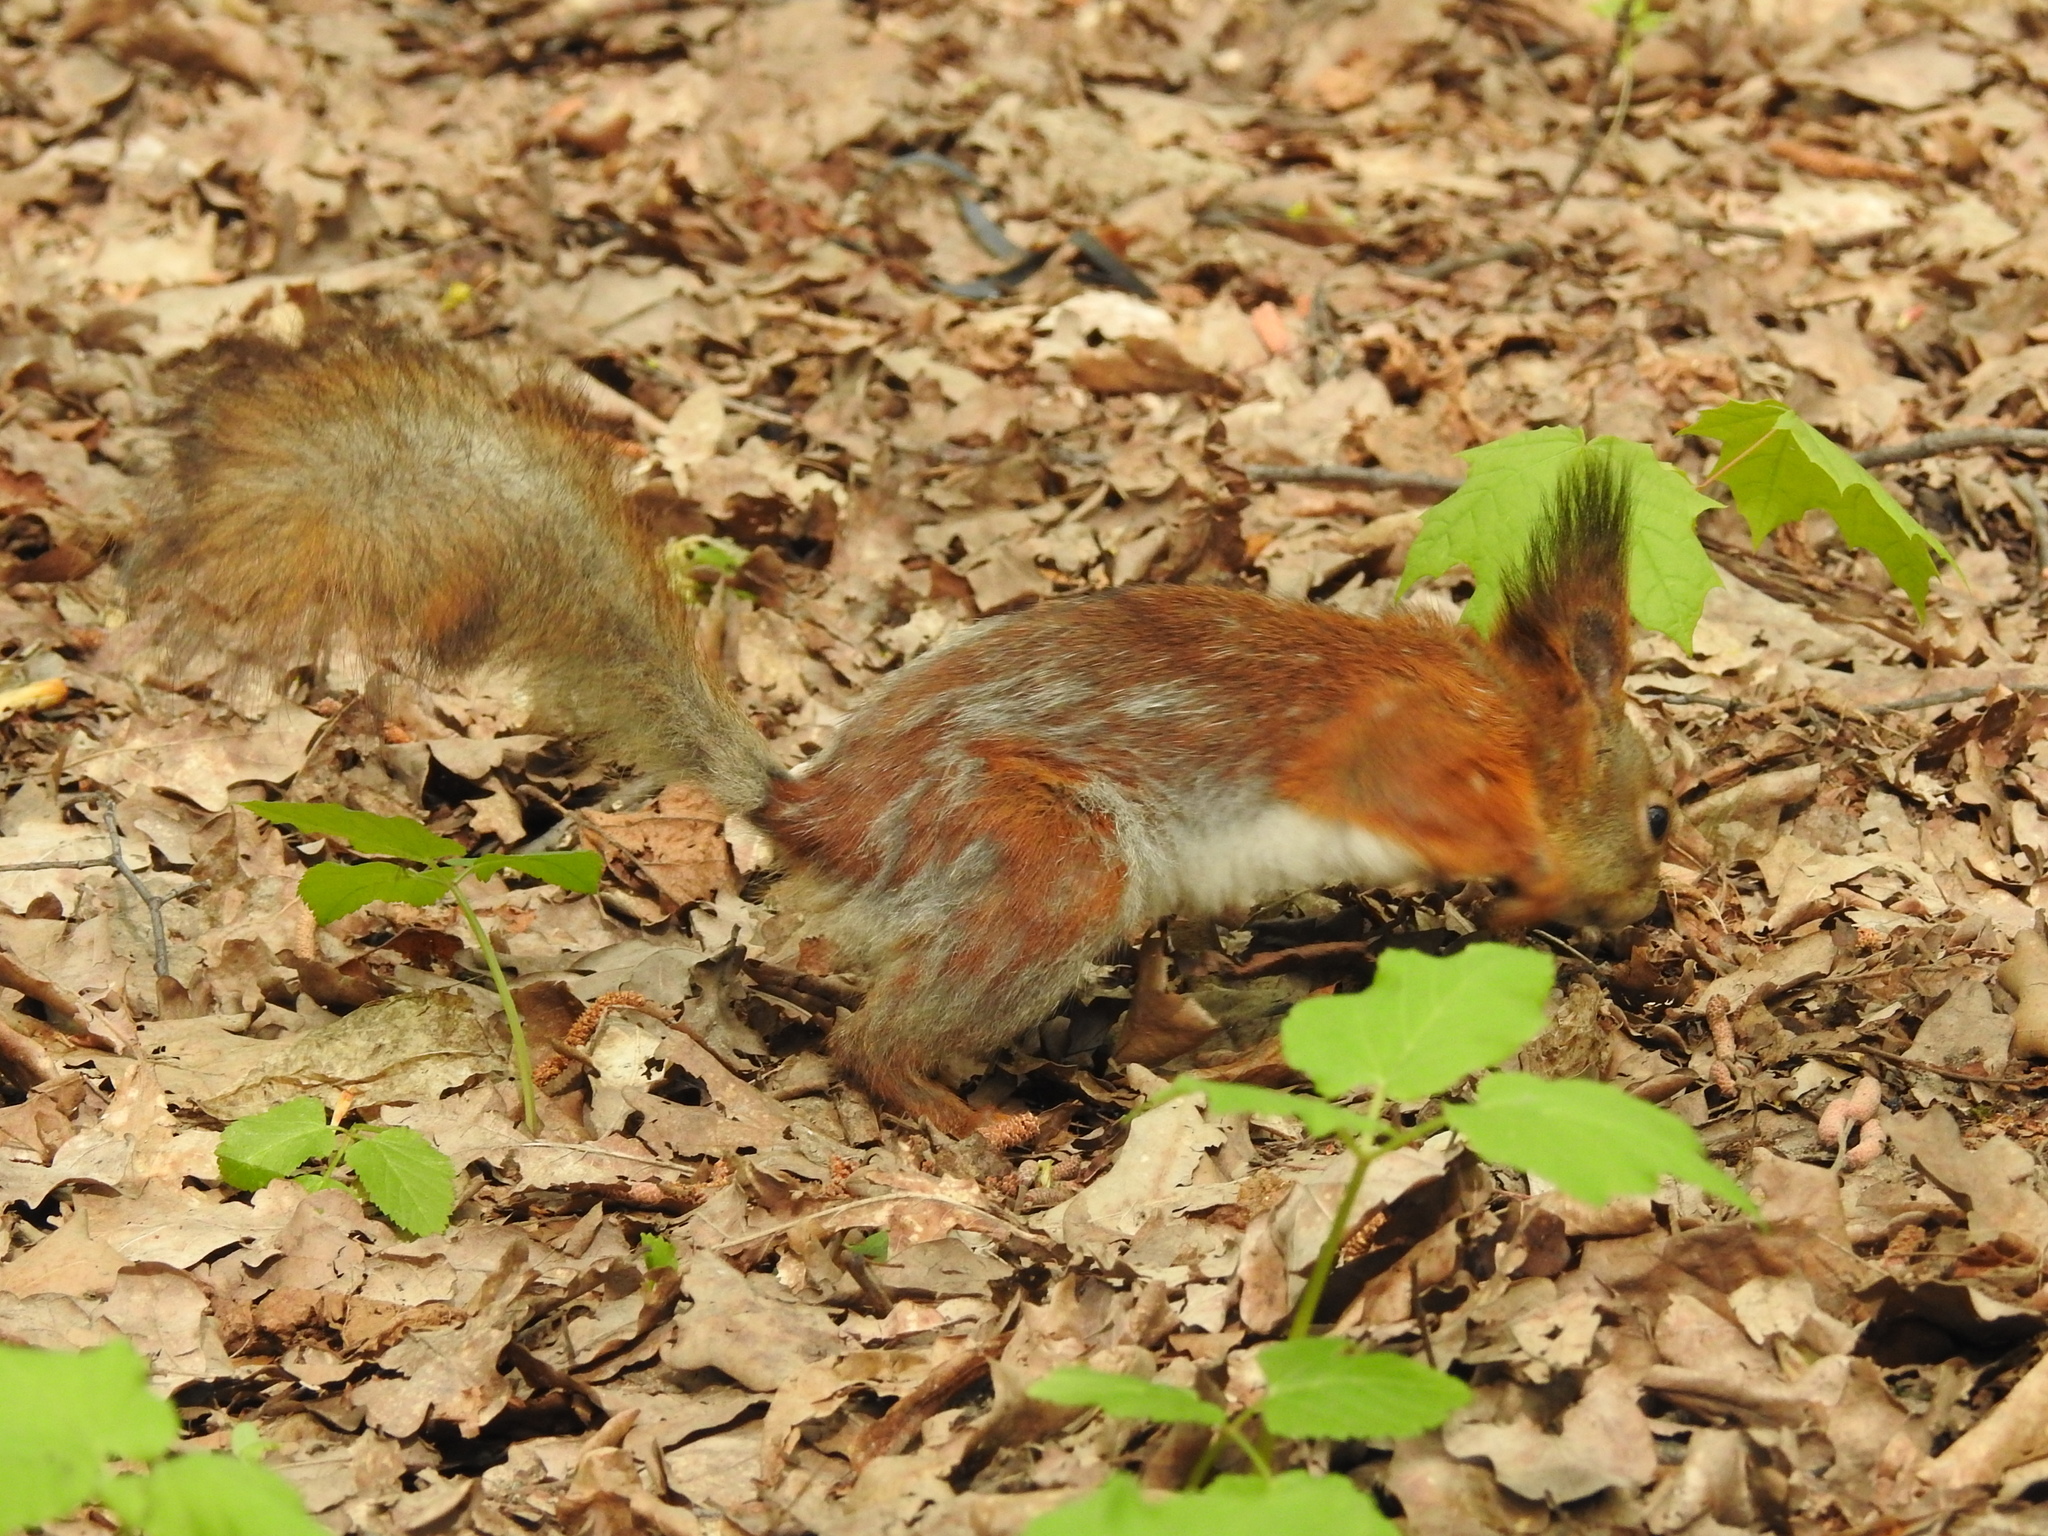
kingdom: Animalia
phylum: Chordata
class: Mammalia
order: Rodentia
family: Sciuridae
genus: Sciurus
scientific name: Sciurus vulgaris
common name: Eurasian red squirrel
